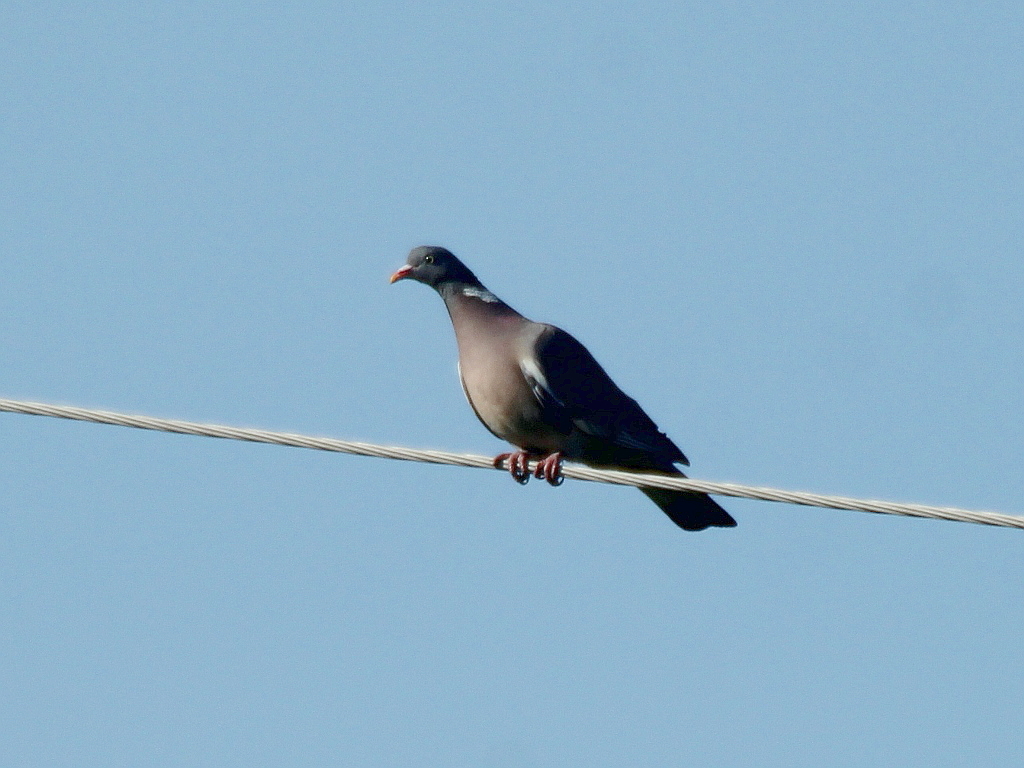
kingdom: Animalia
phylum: Chordata
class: Aves
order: Columbiformes
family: Columbidae
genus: Columba
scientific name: Columba palumbus
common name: Common wood pigeon
